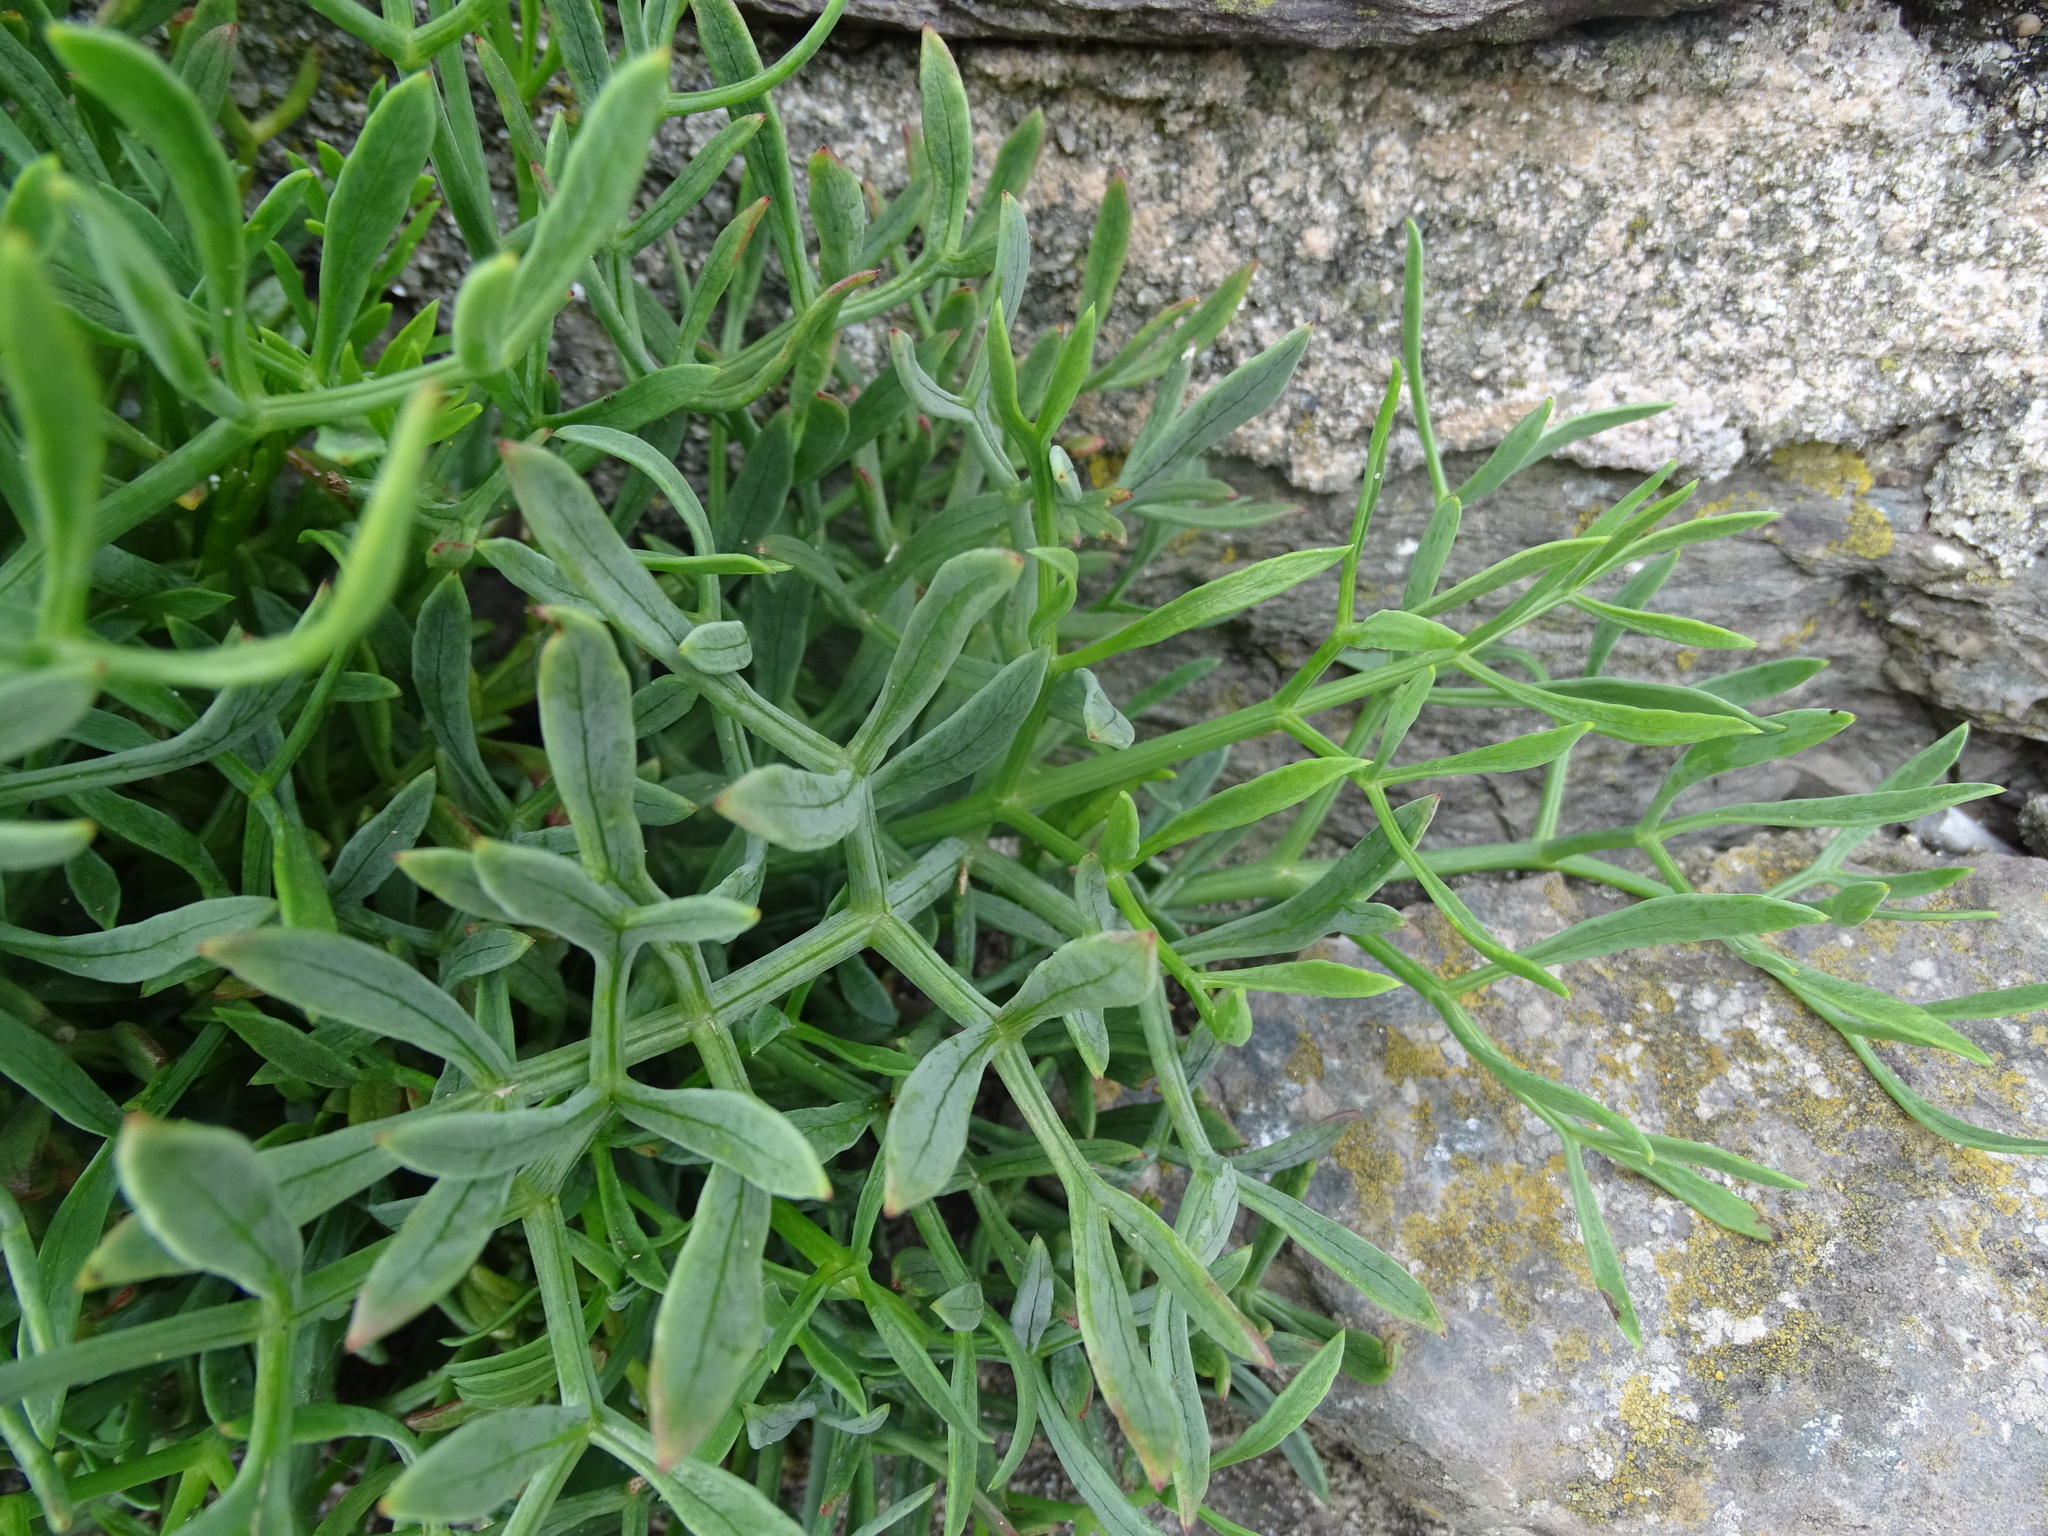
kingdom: Plantae
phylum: Tracheophyta
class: Magnoliopsida
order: Apiales
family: Apiaceae
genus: Crithmum
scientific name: Crithmum maritimum
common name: Rock samphire
